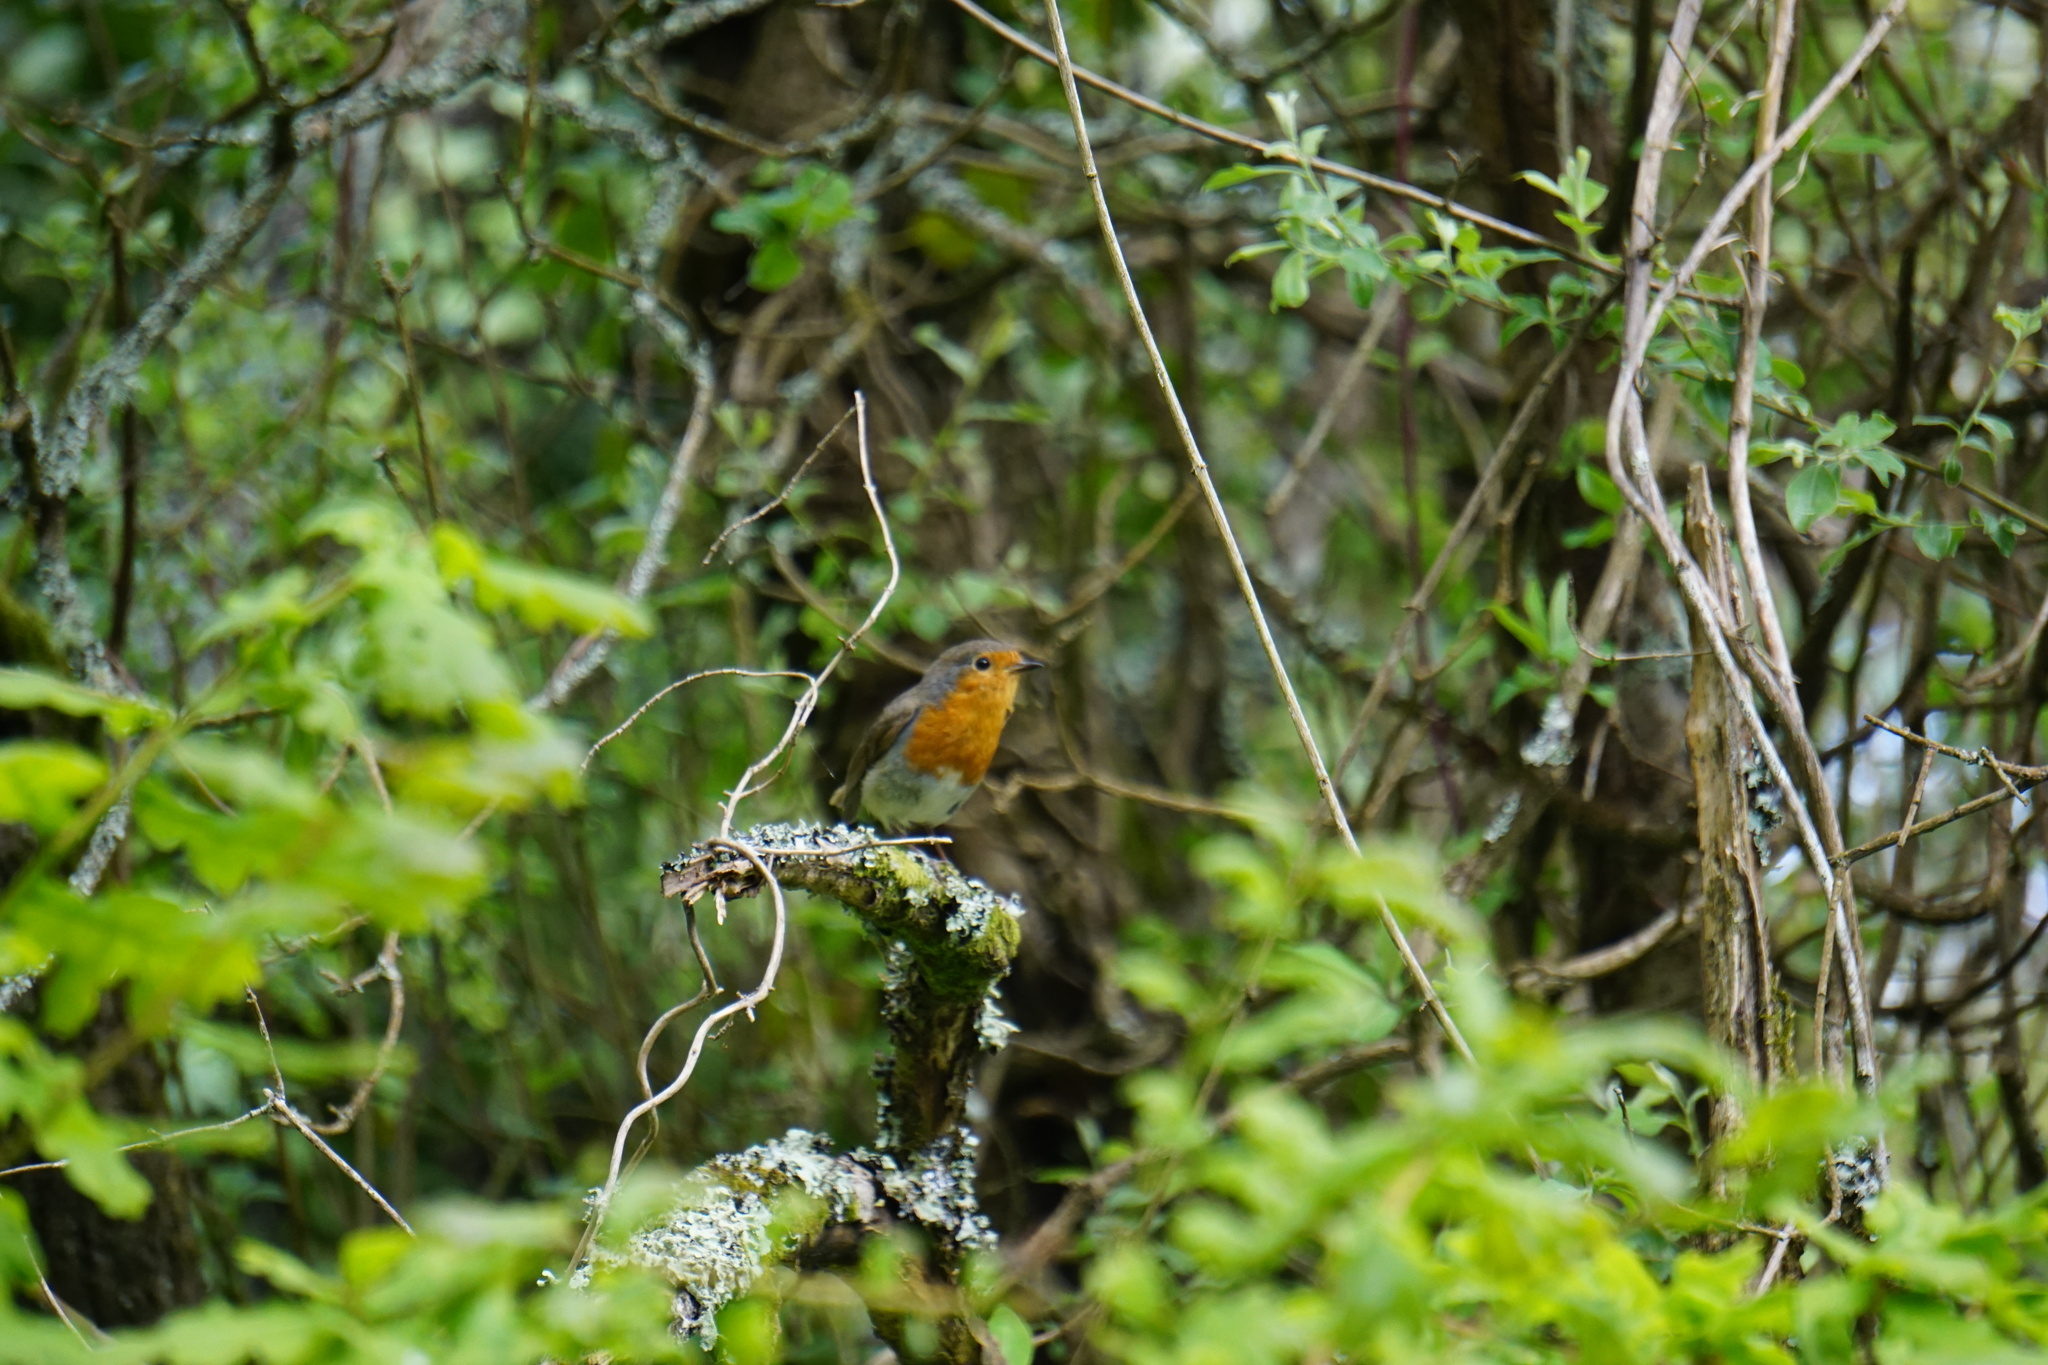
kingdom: Animalia
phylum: Chordata
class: Aves
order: Passeriformes
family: Muscicapidae
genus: Erithacus
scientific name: Erithacus rubecula
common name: European robin
